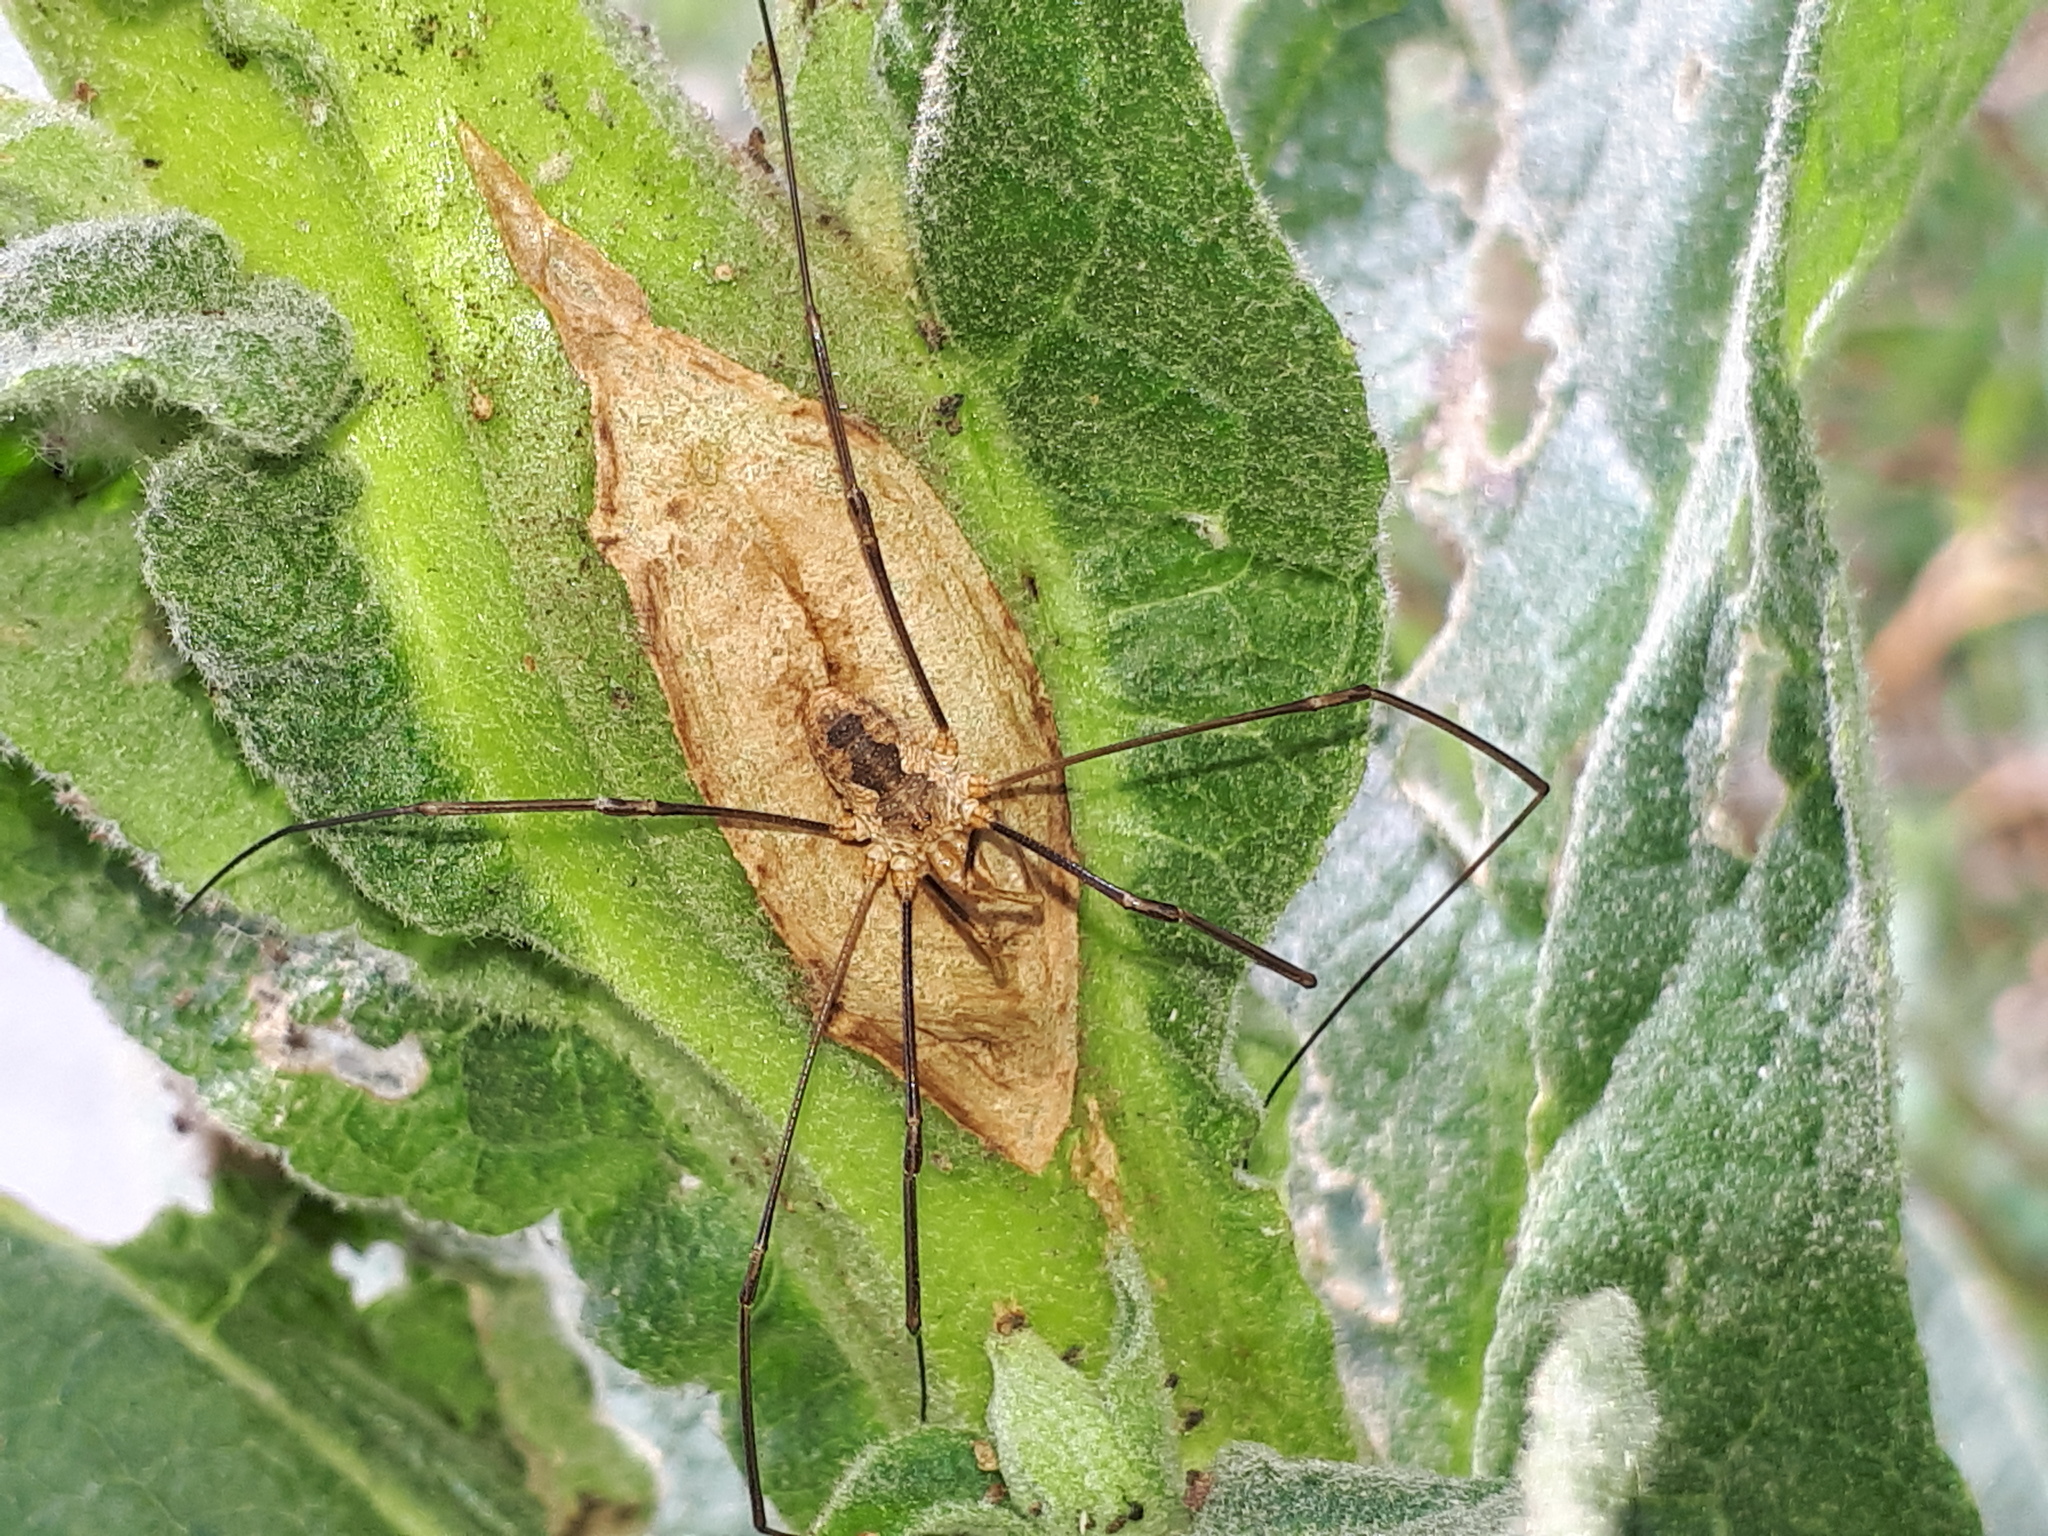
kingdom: Animalia
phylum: Arthropoda
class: Arachnida
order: Opiliones
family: Phalangiidae
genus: Phalangium
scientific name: Phalangium opilio
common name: Daddy longleg
